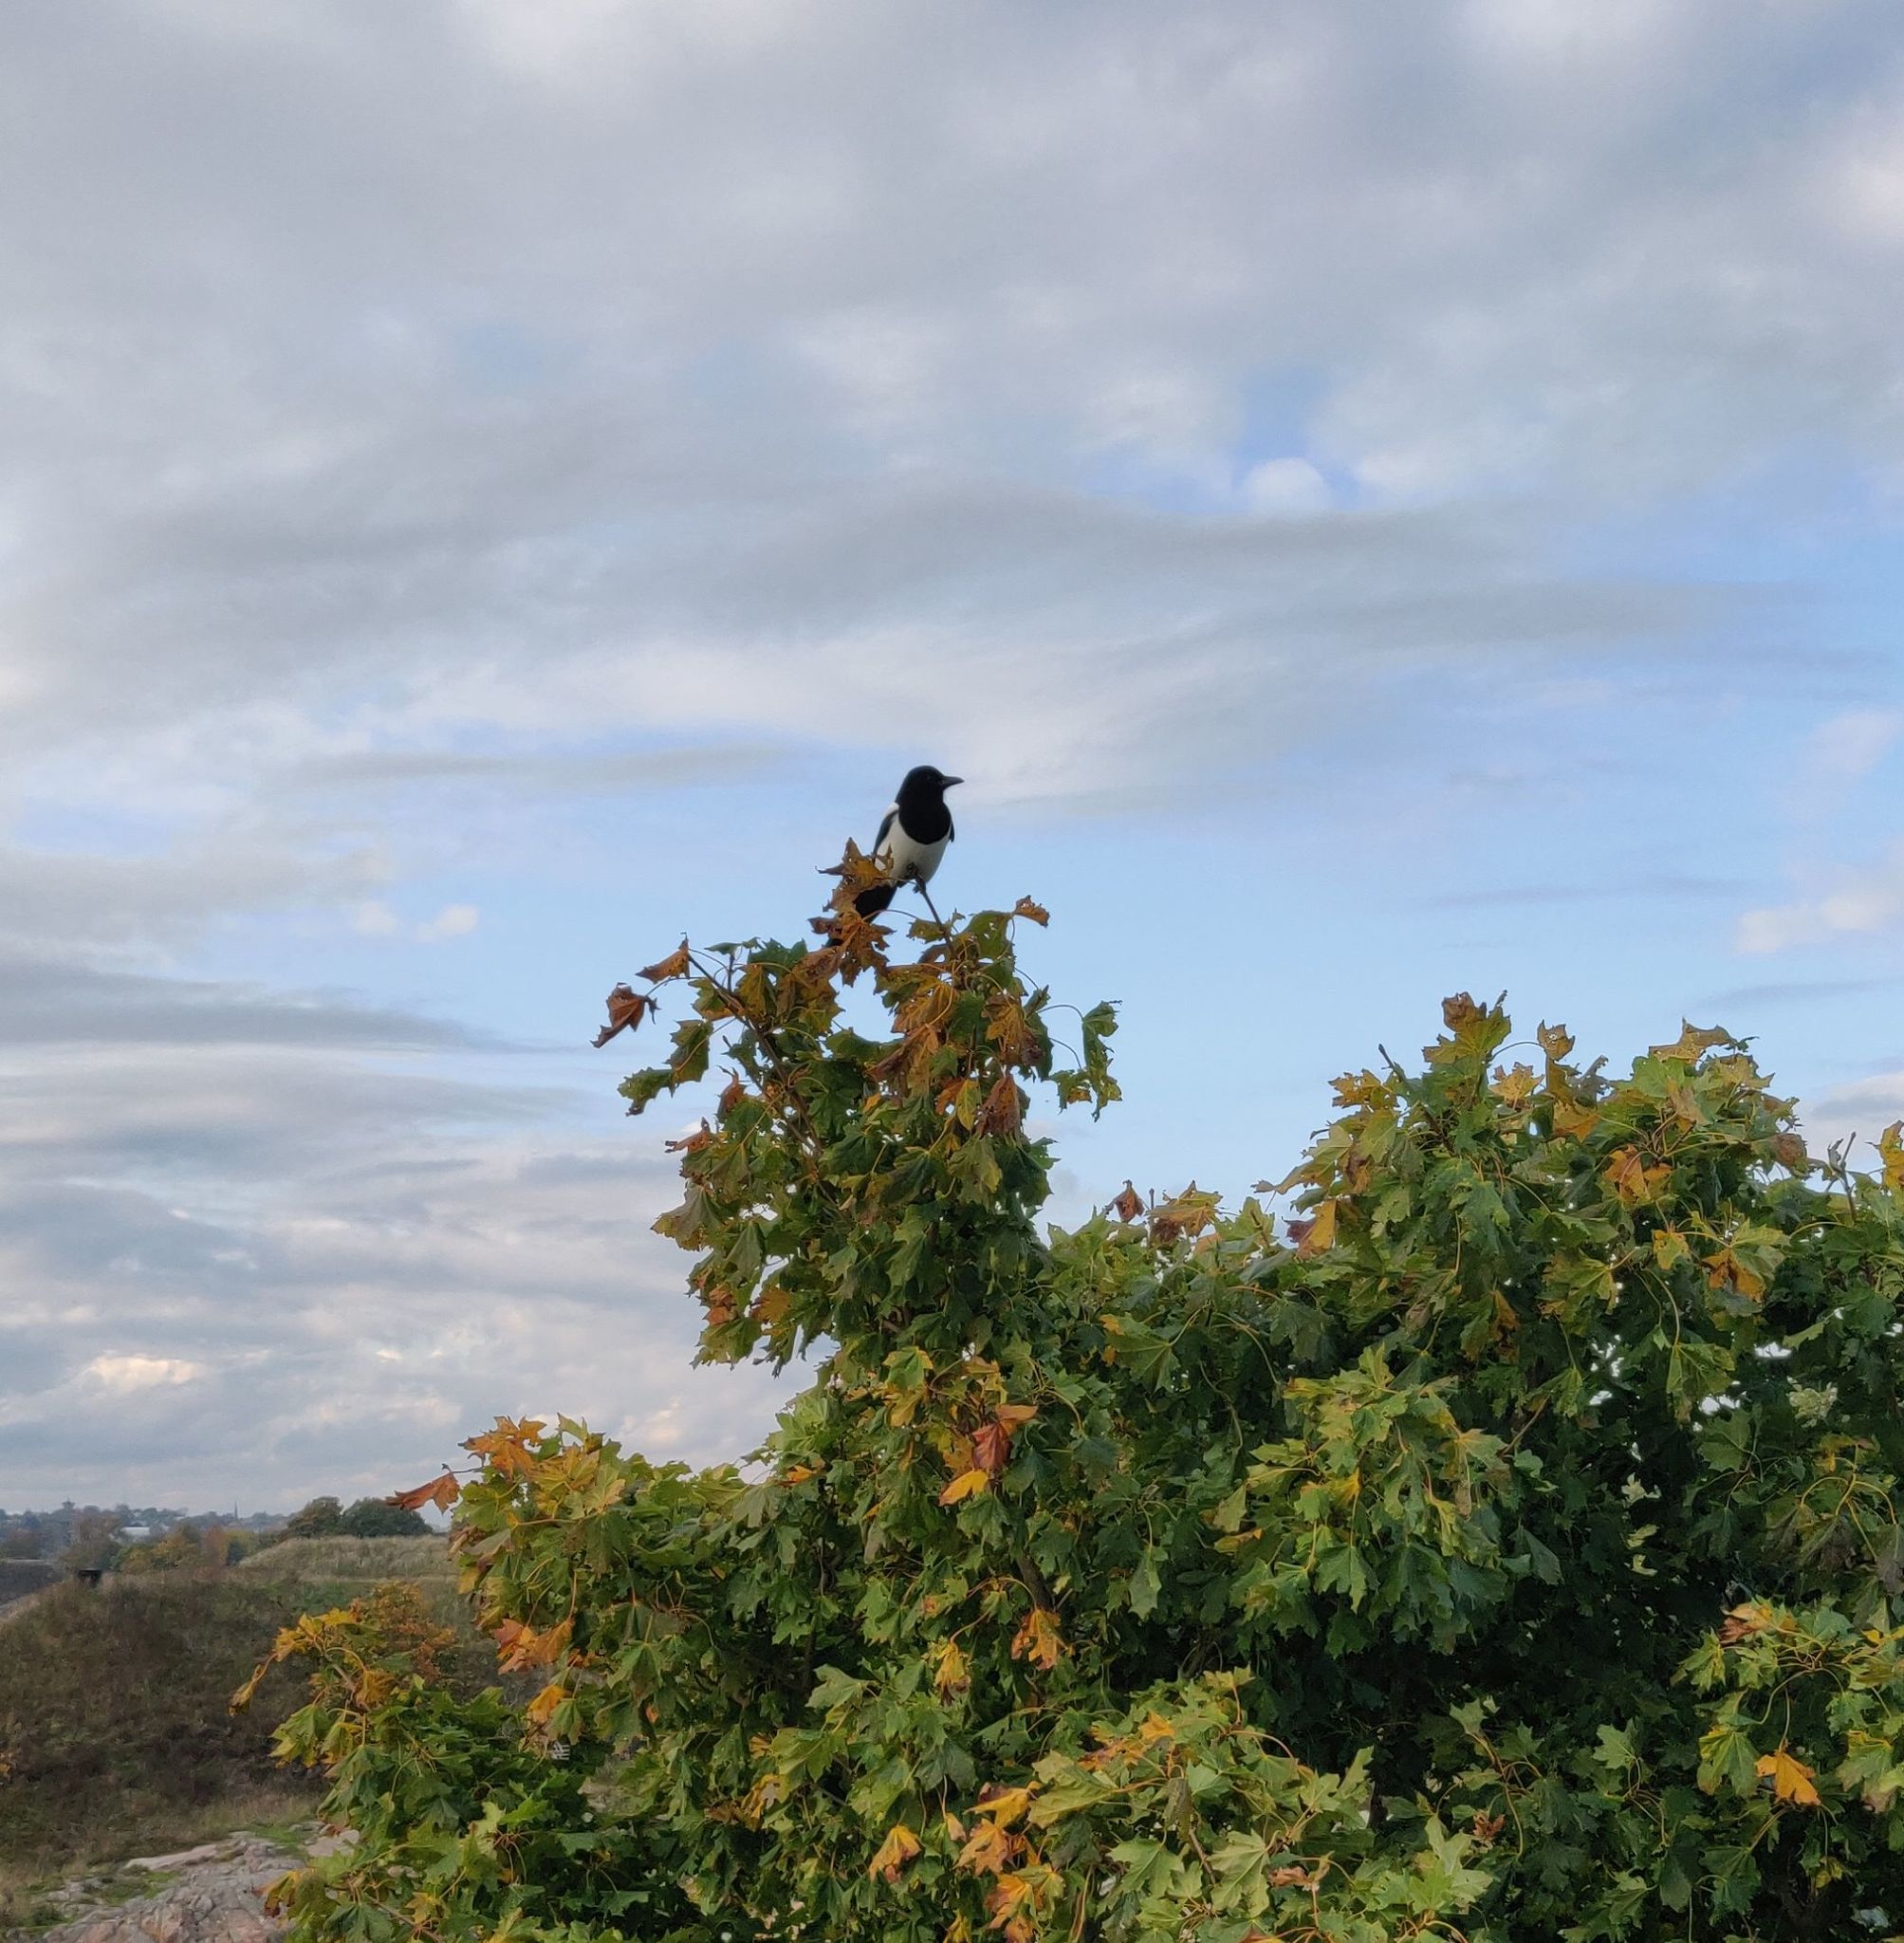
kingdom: Animalia
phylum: Chordata
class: Aves
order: Passeriformes
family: Corvidae
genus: Pica
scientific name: Pica pica
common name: Eurasian magpie
